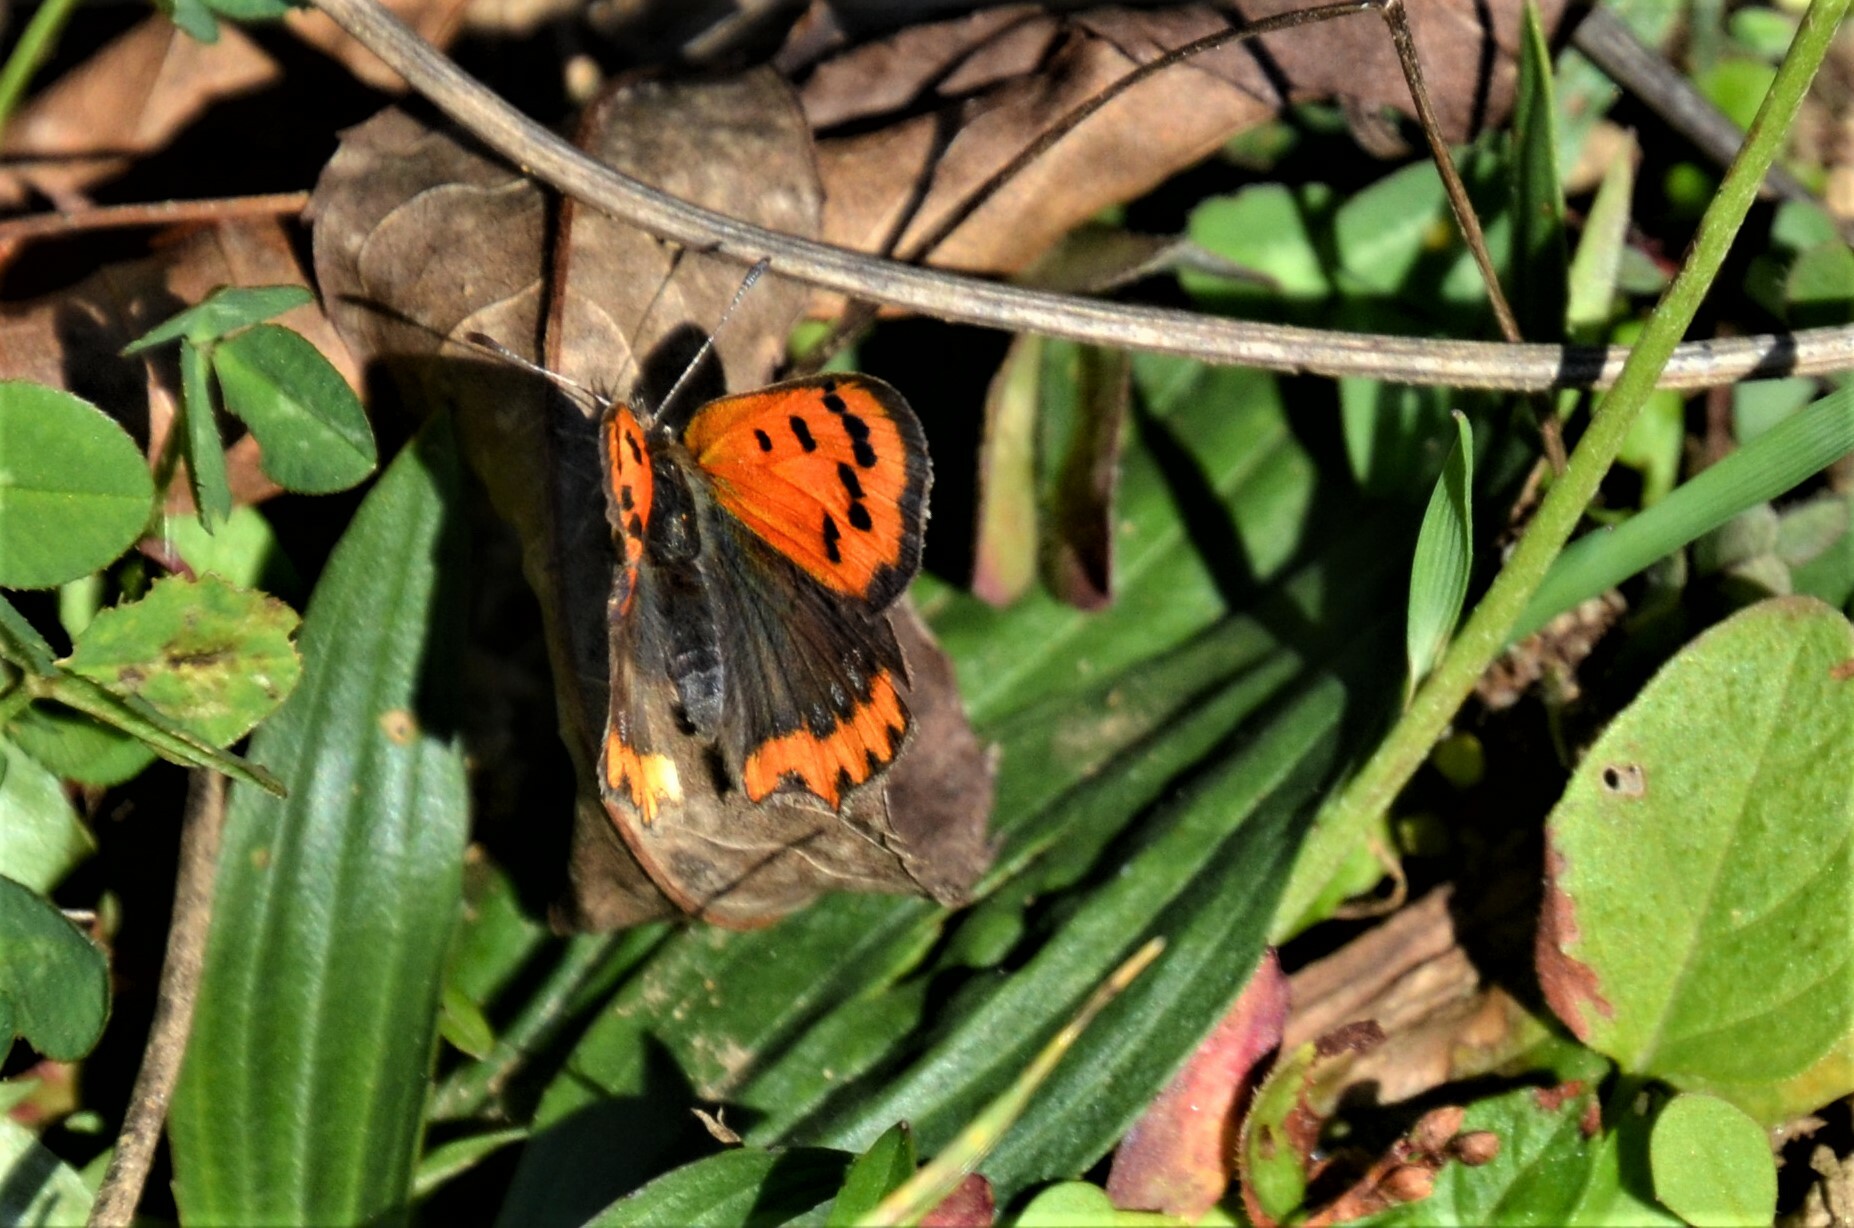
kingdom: Animalia
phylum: Arthropoda
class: Insecta
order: Lepidoptera
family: Lycaenidae
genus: Lycaena
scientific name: Lycaena phlaeas
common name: Small copper
